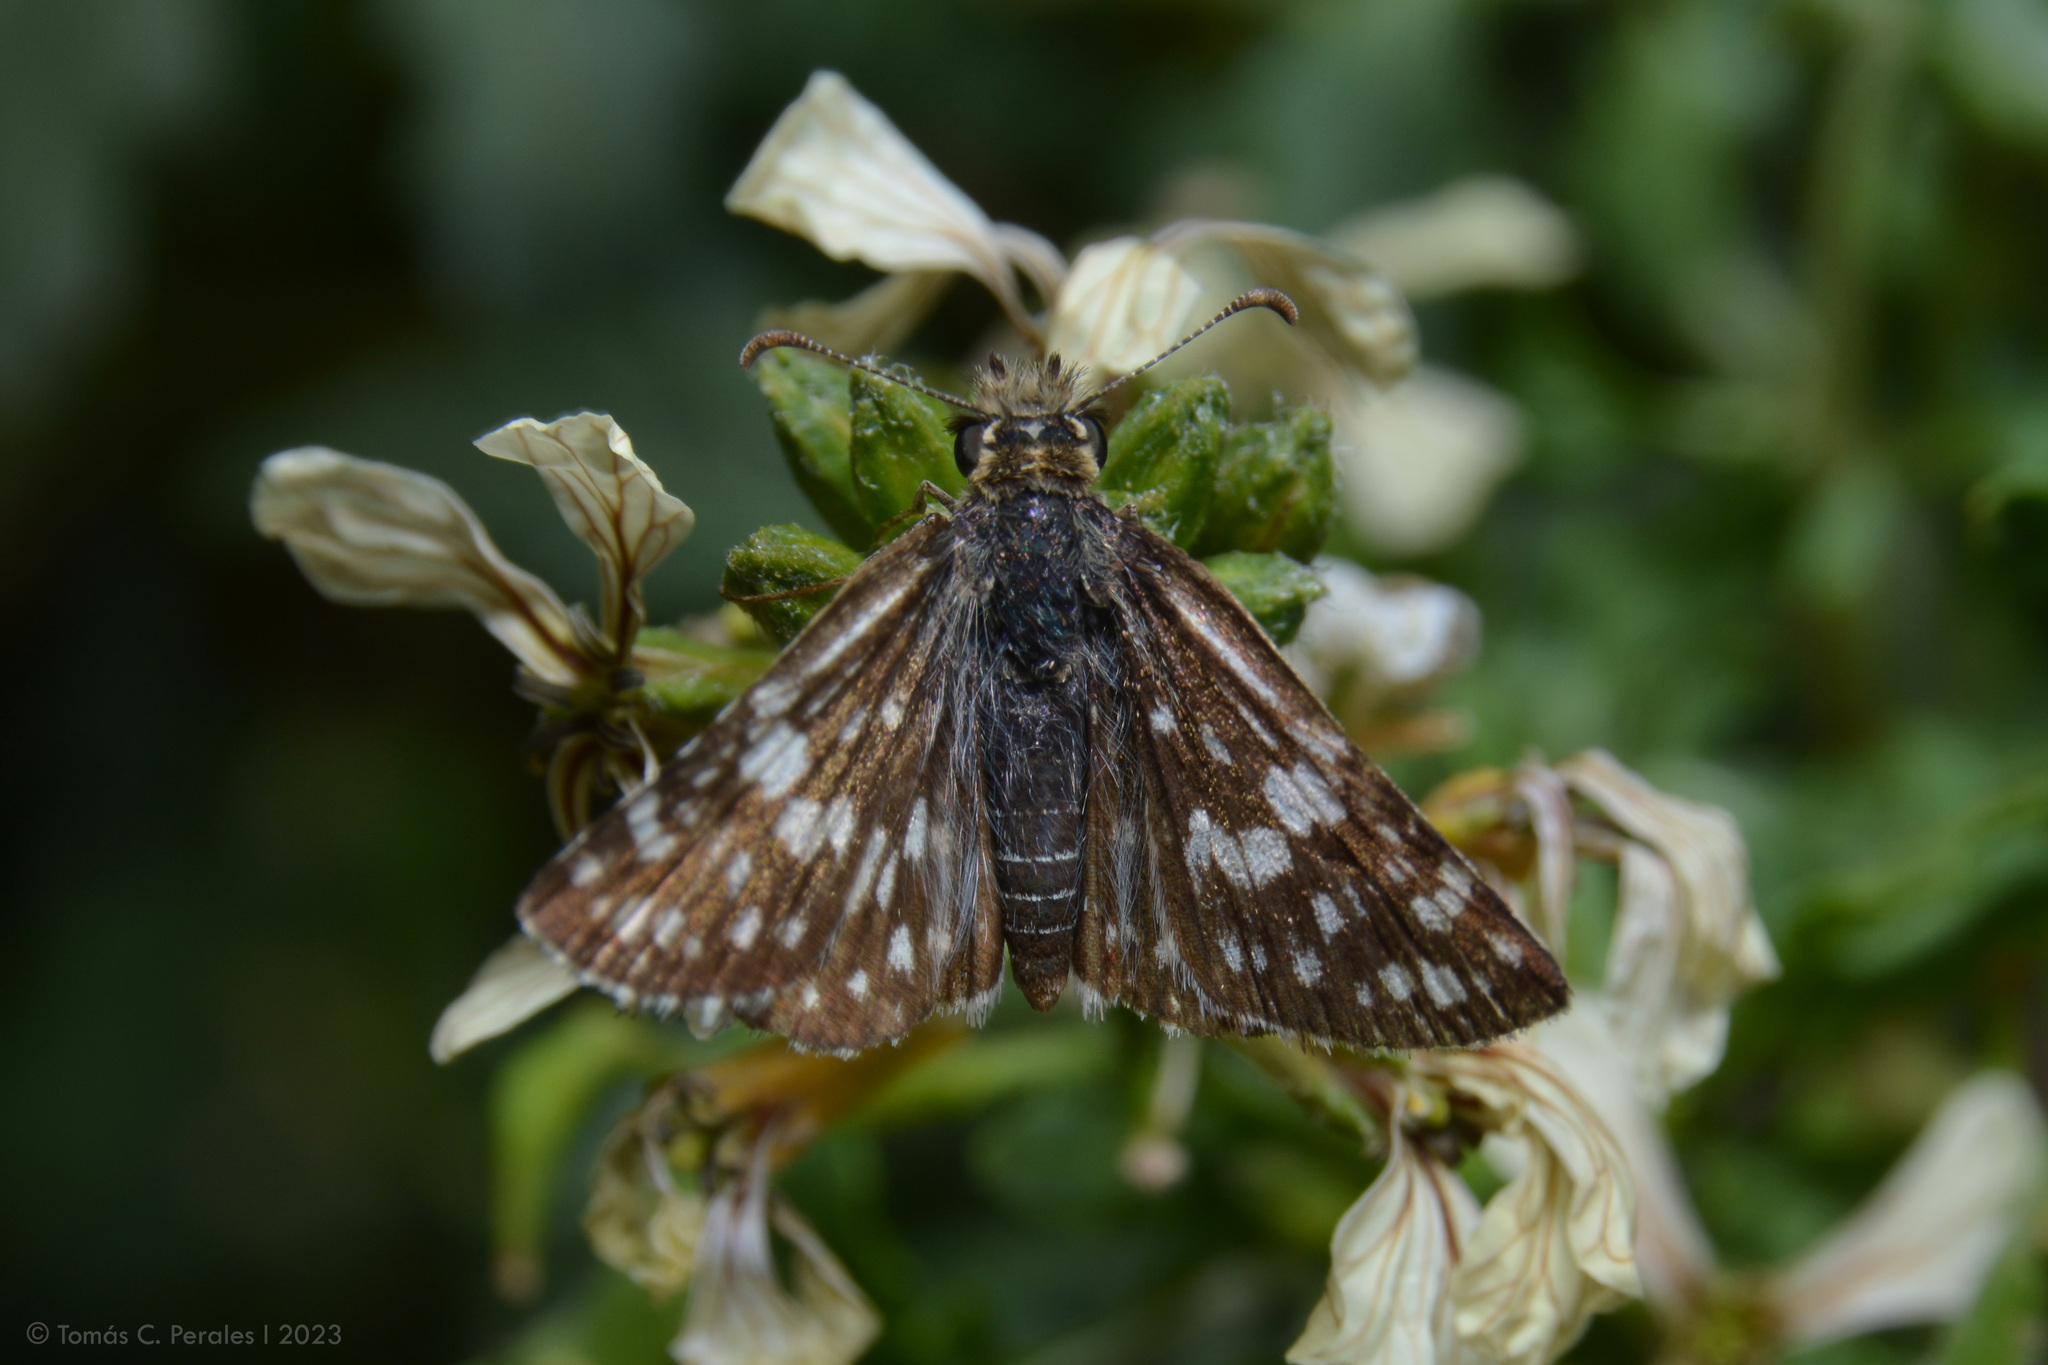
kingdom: Animalia
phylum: Arthropoda
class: Insecta
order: Lepidoptera
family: Hesperiidae
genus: Burnsius
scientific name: Burnsius orcynoides
